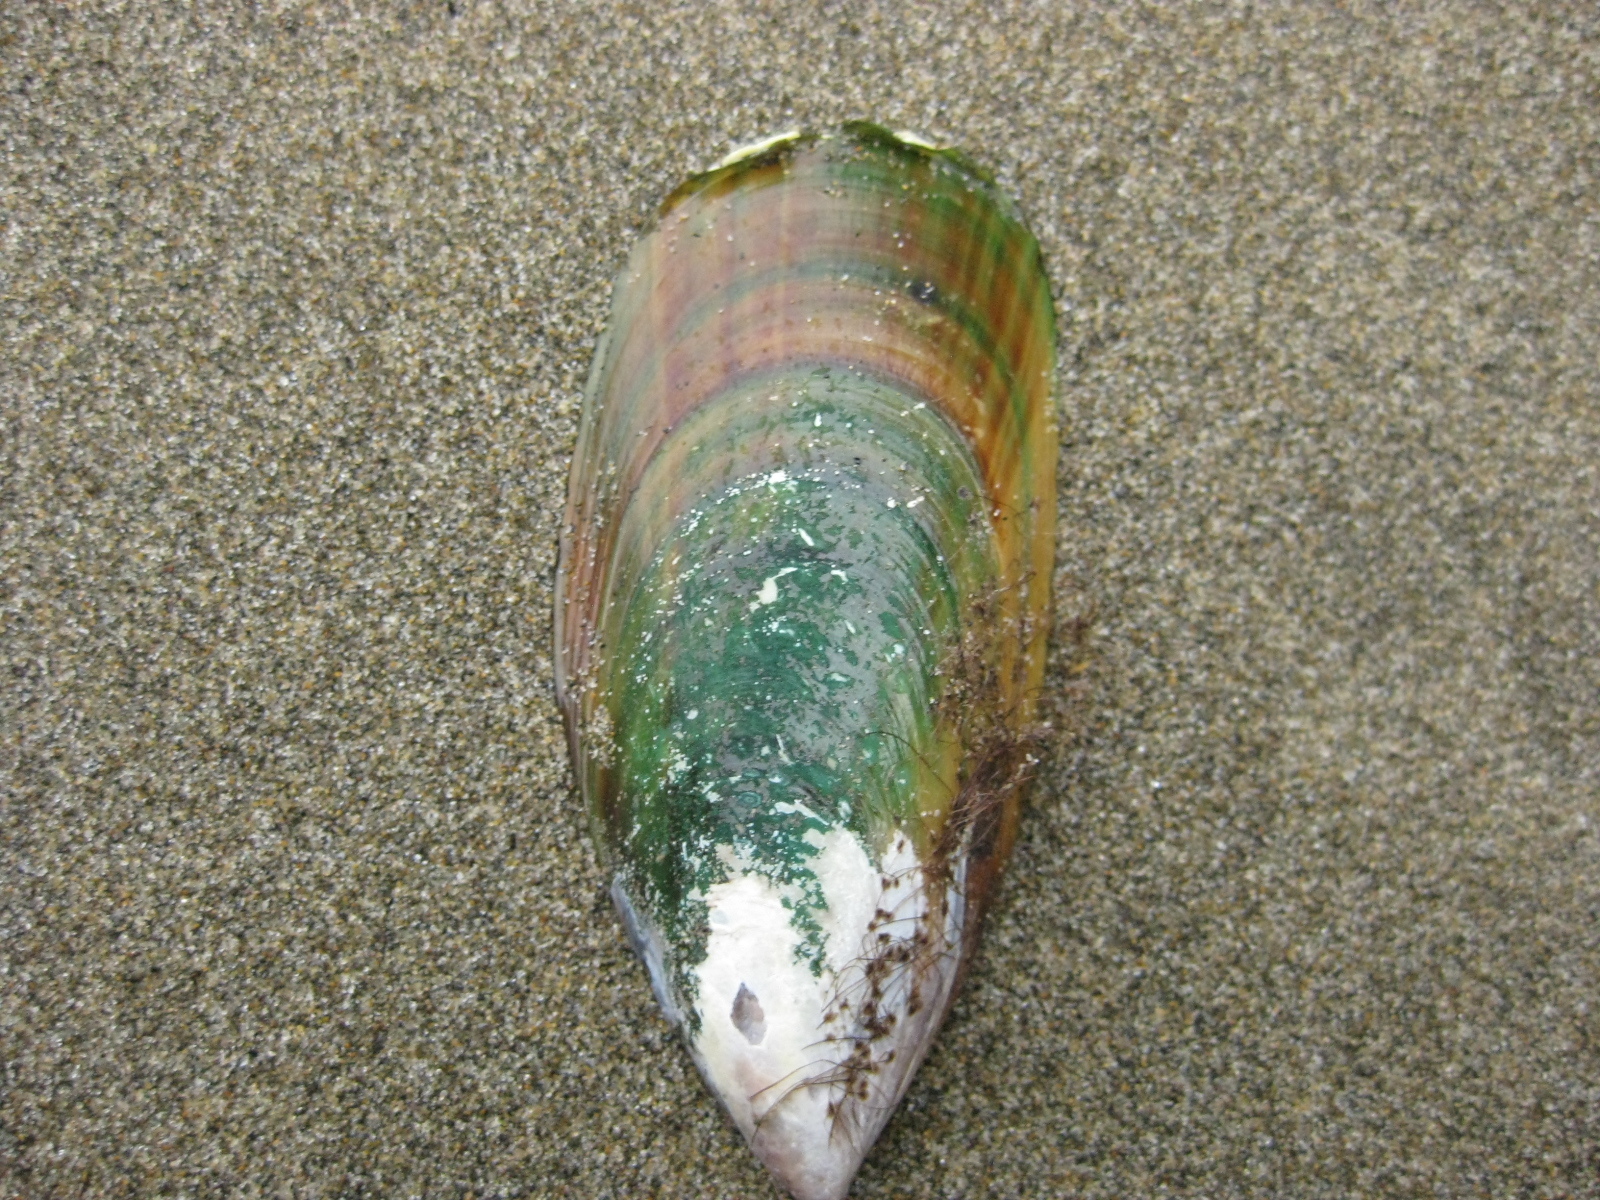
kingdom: Animalia
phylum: Mollusca
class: Bivalvia
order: Mytilida
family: Mytilidae
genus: Perna
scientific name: Perna canaliculus
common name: New zealand greenshelltm
